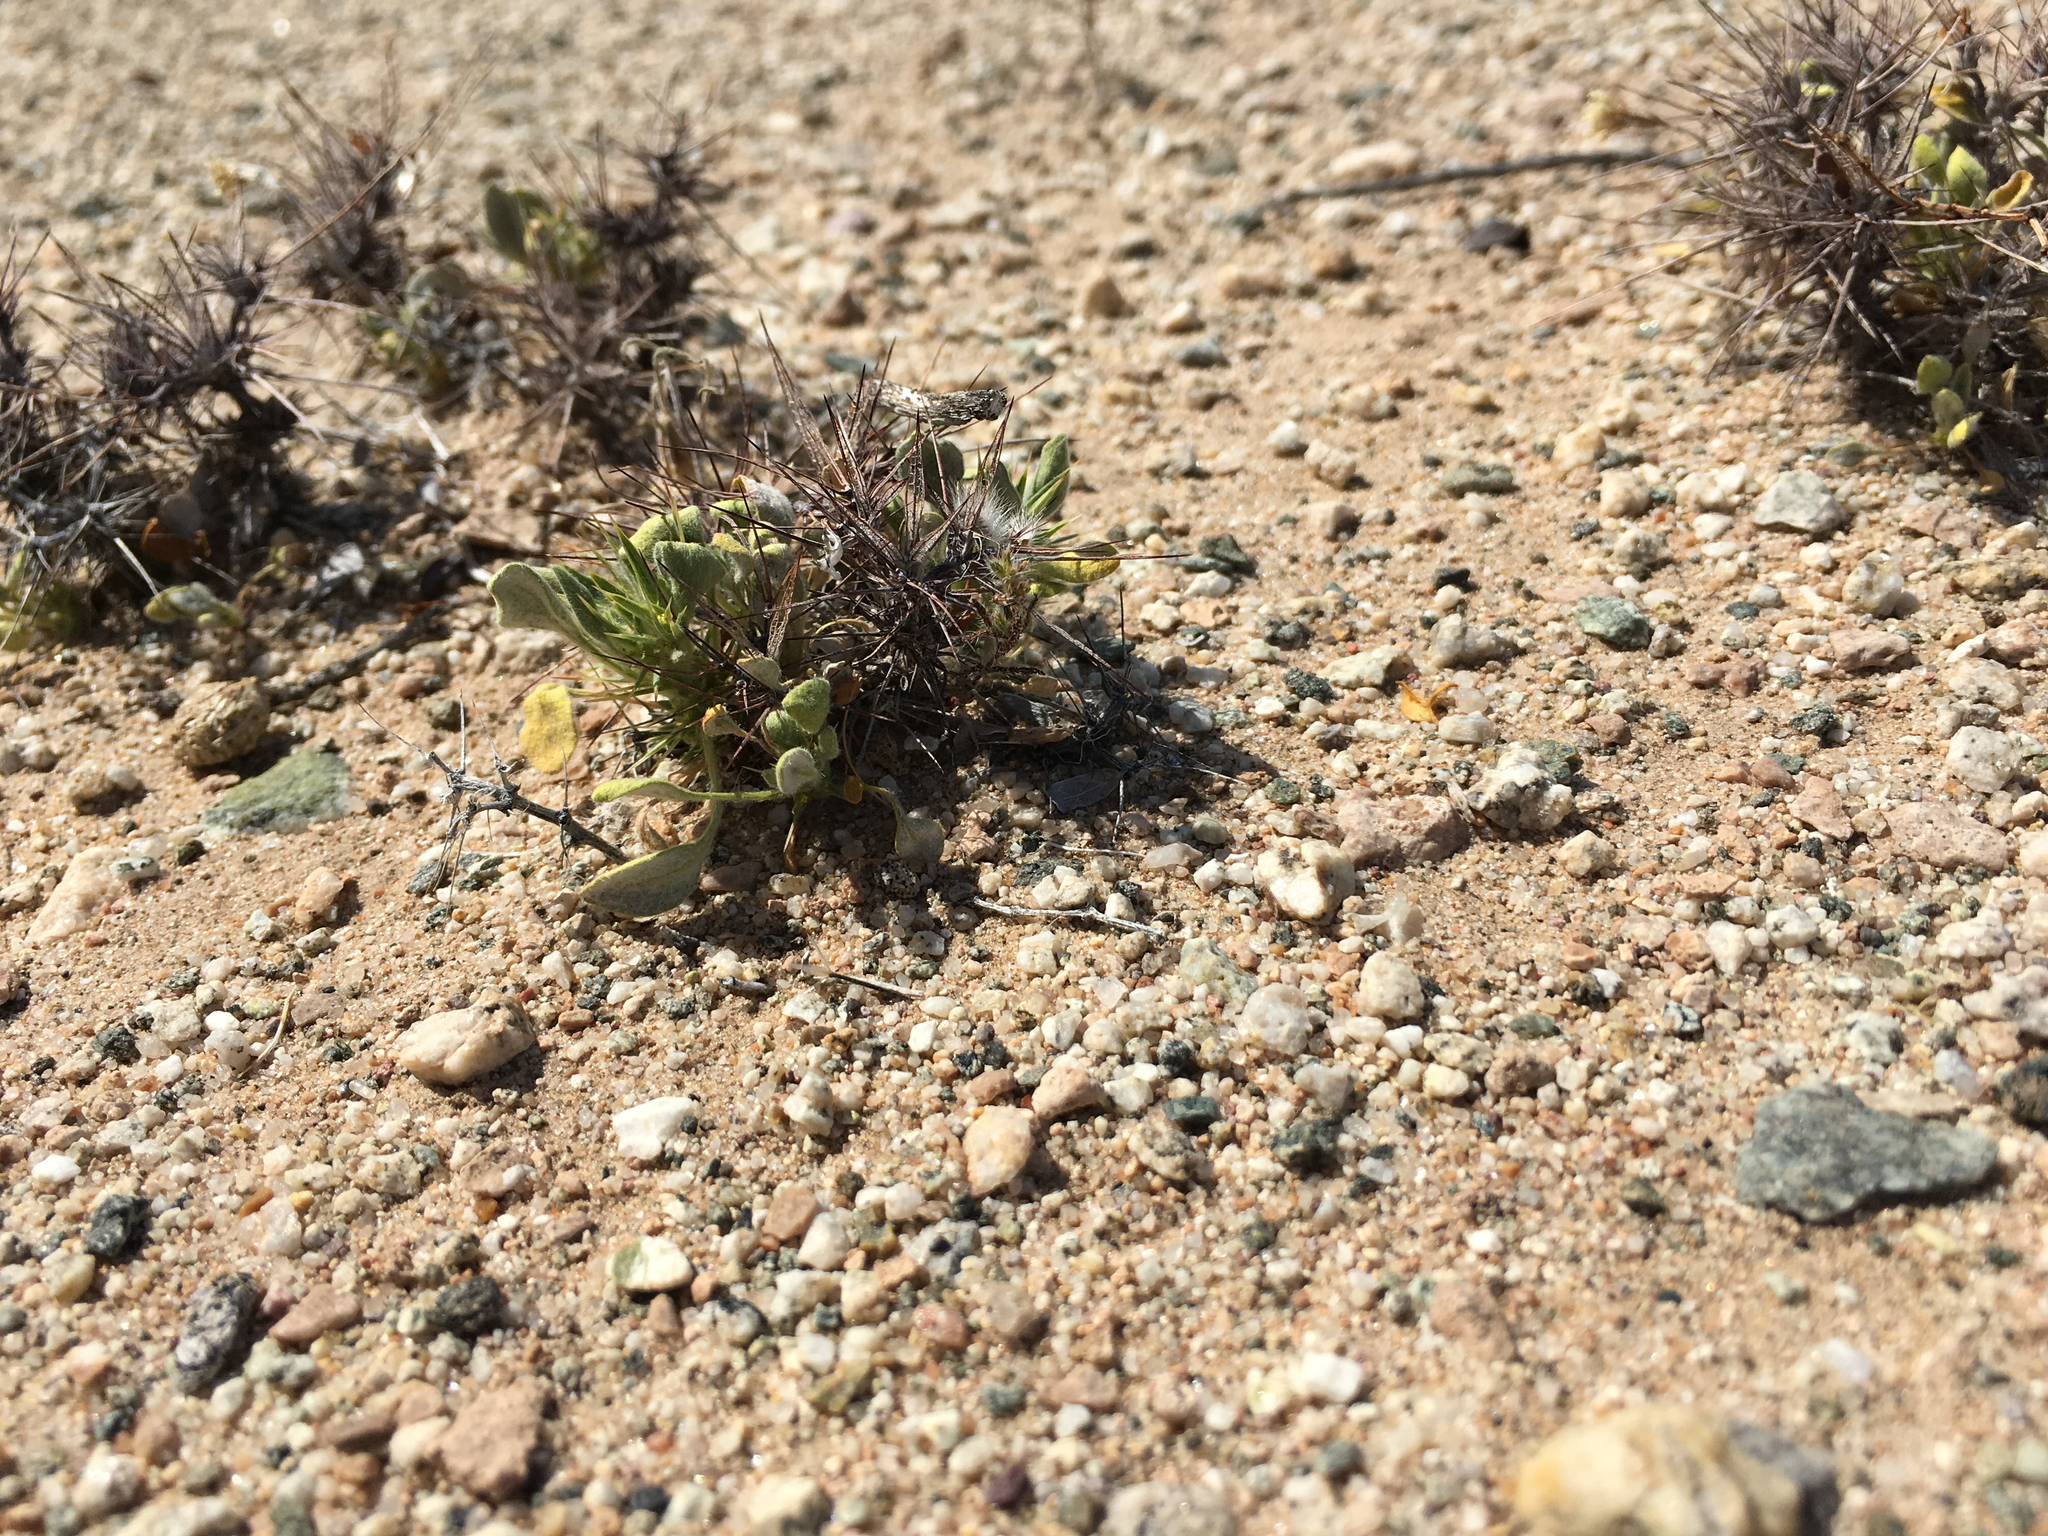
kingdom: Plantae
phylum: Tracheophyta
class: Magnoliopsida
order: Caryophyllales
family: Polygonaceae
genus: Chorizanthe
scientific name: Chorizanthe rigida
